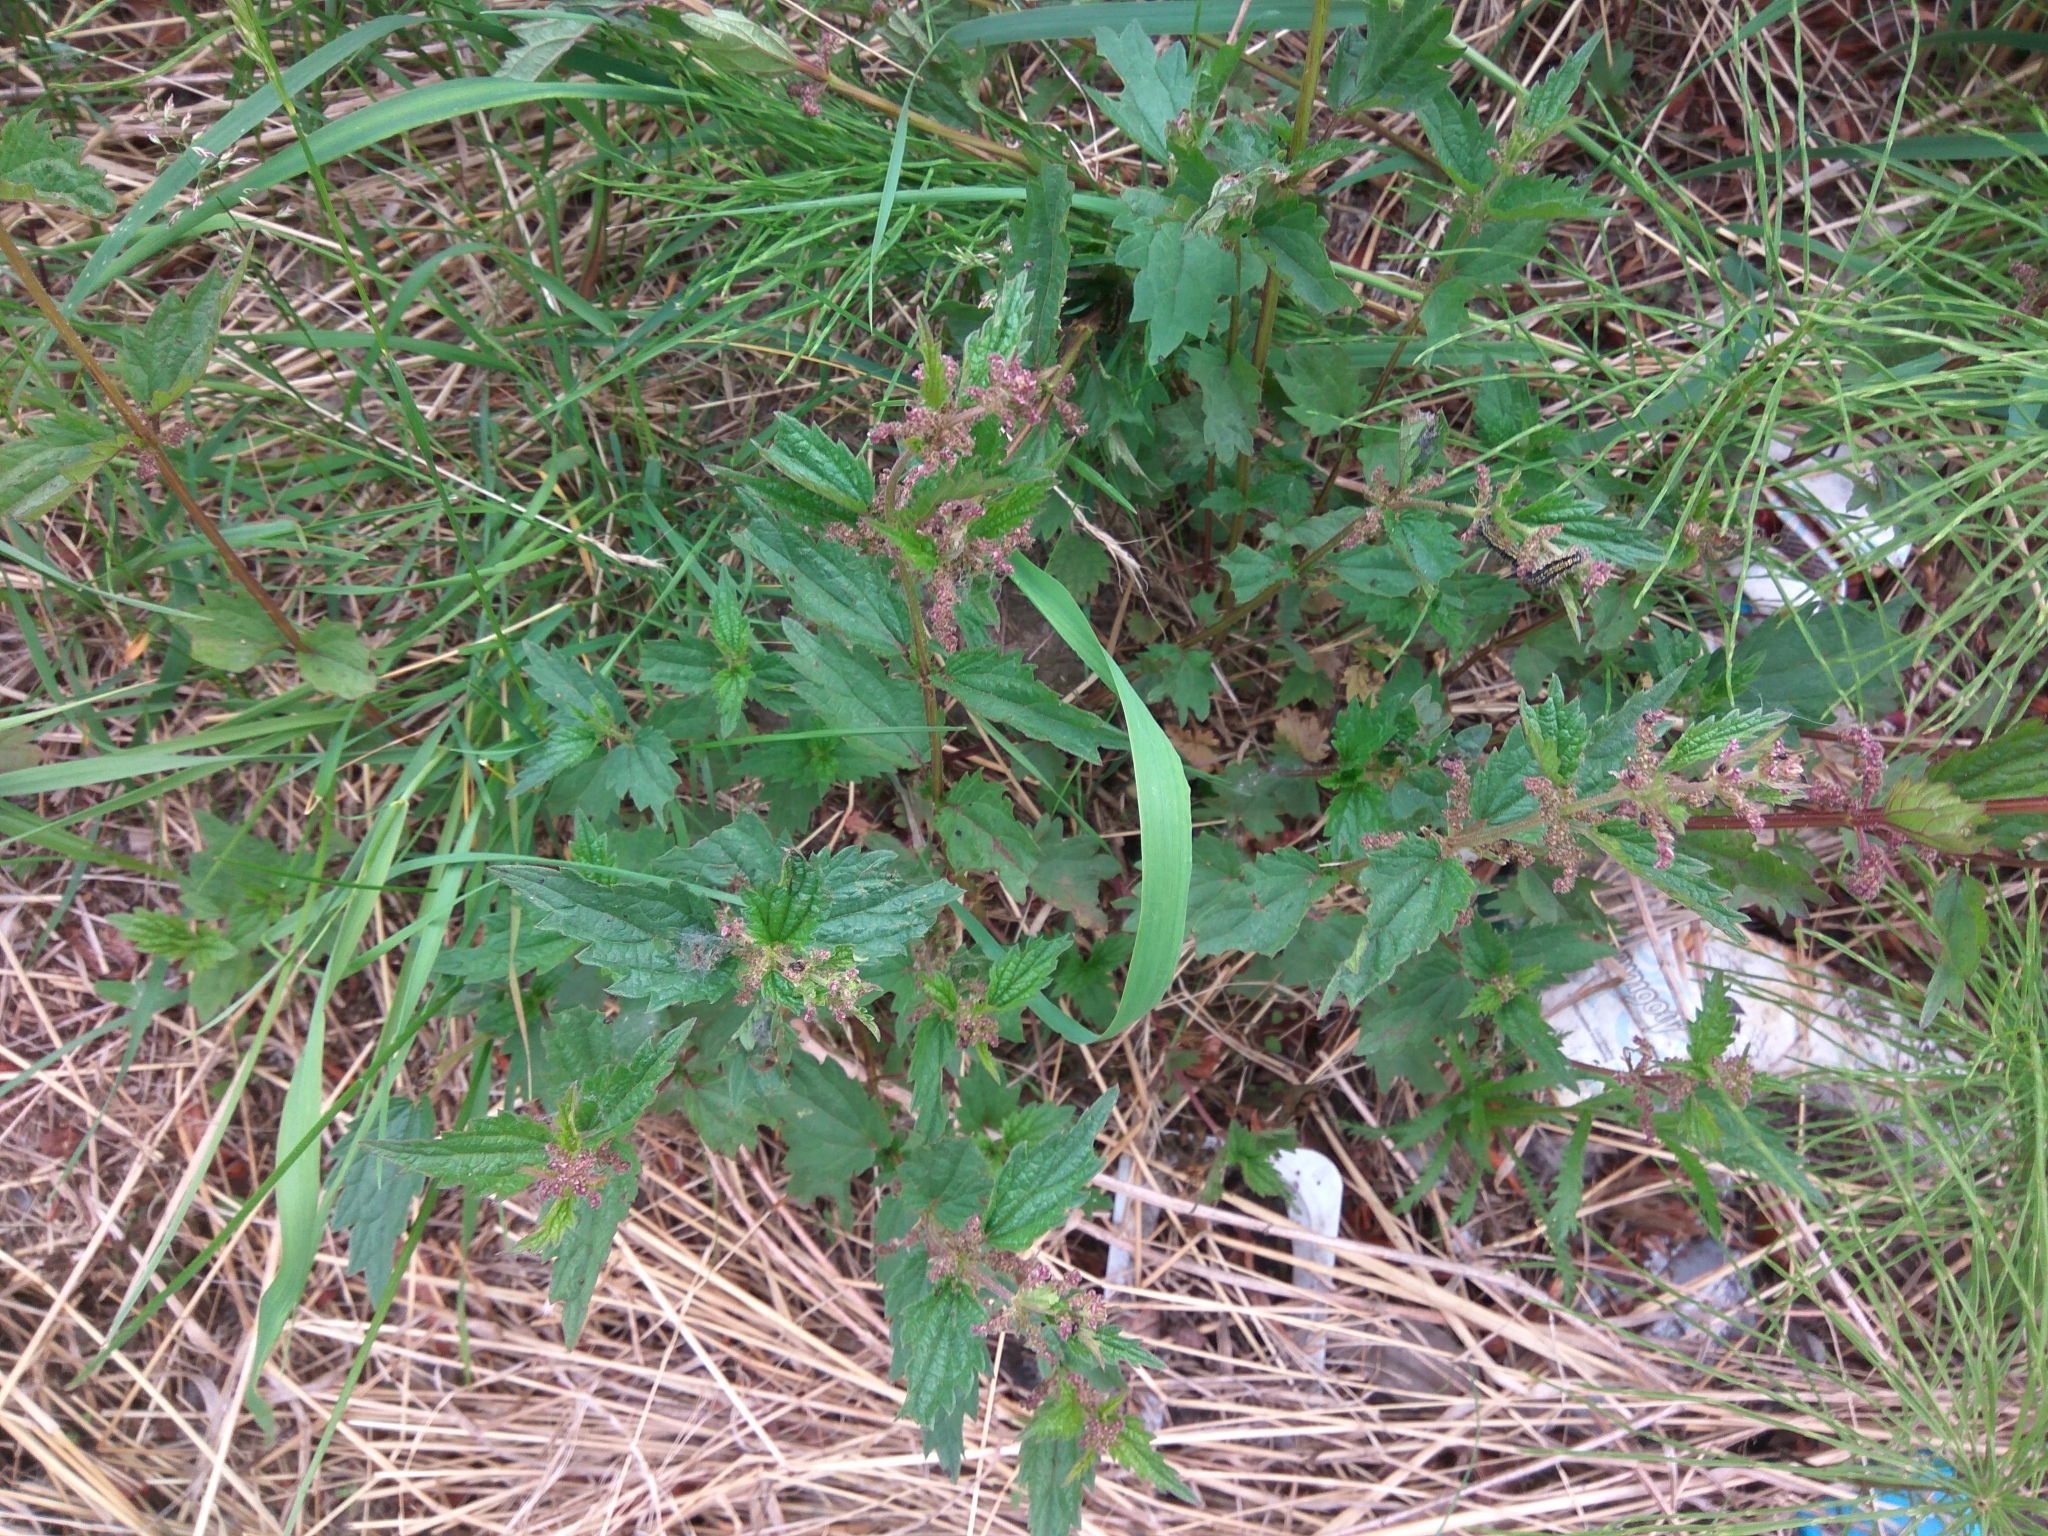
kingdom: Plantae
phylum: Tracheophyta
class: Magnoliopsida
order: Rosales
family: Urticaceae
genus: Urtica
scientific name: Urtica platyphylla
